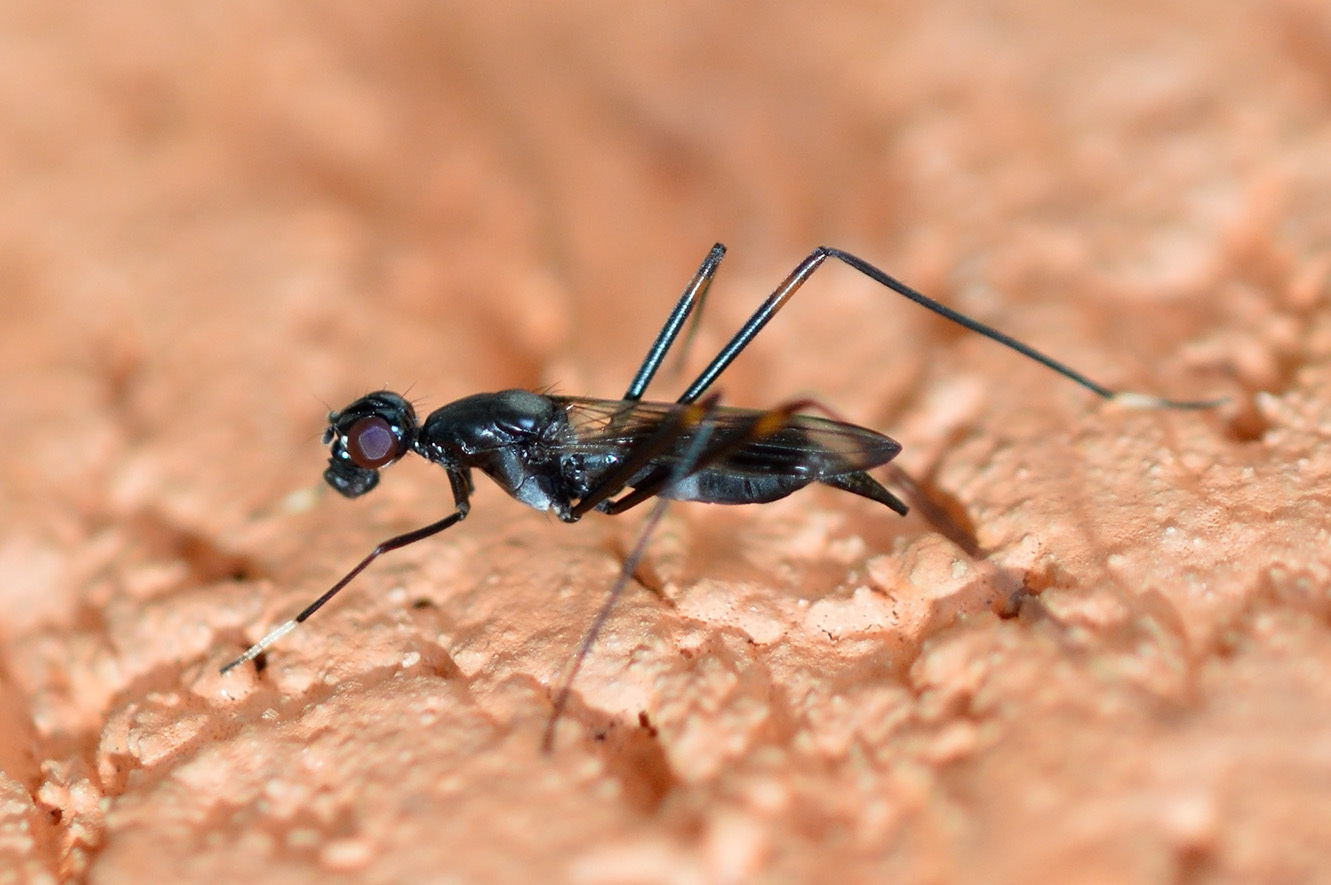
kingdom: Animalia
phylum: Arthropoda
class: Insecta
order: Diptera
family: Micropezidae
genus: Rainieria
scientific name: Rainieria calceata
